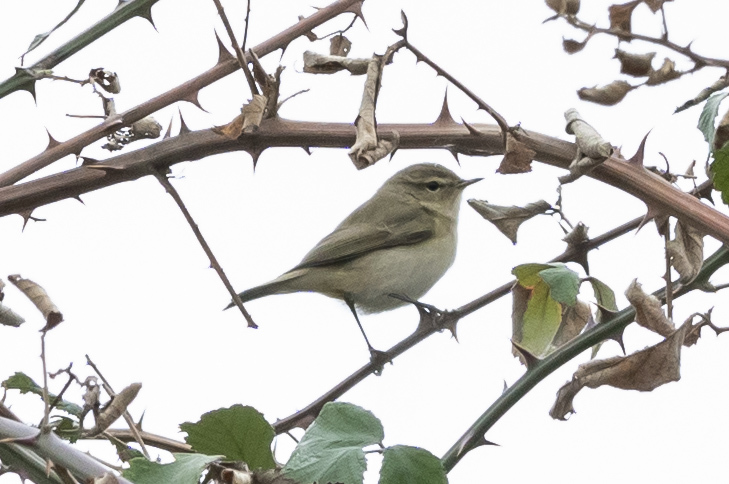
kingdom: Animalia
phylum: Chordata
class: Aves
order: Passeriformes
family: Phylloscopidae
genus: Phylloscopus
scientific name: Phylloscopus collybita
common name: Common chiffchaff
